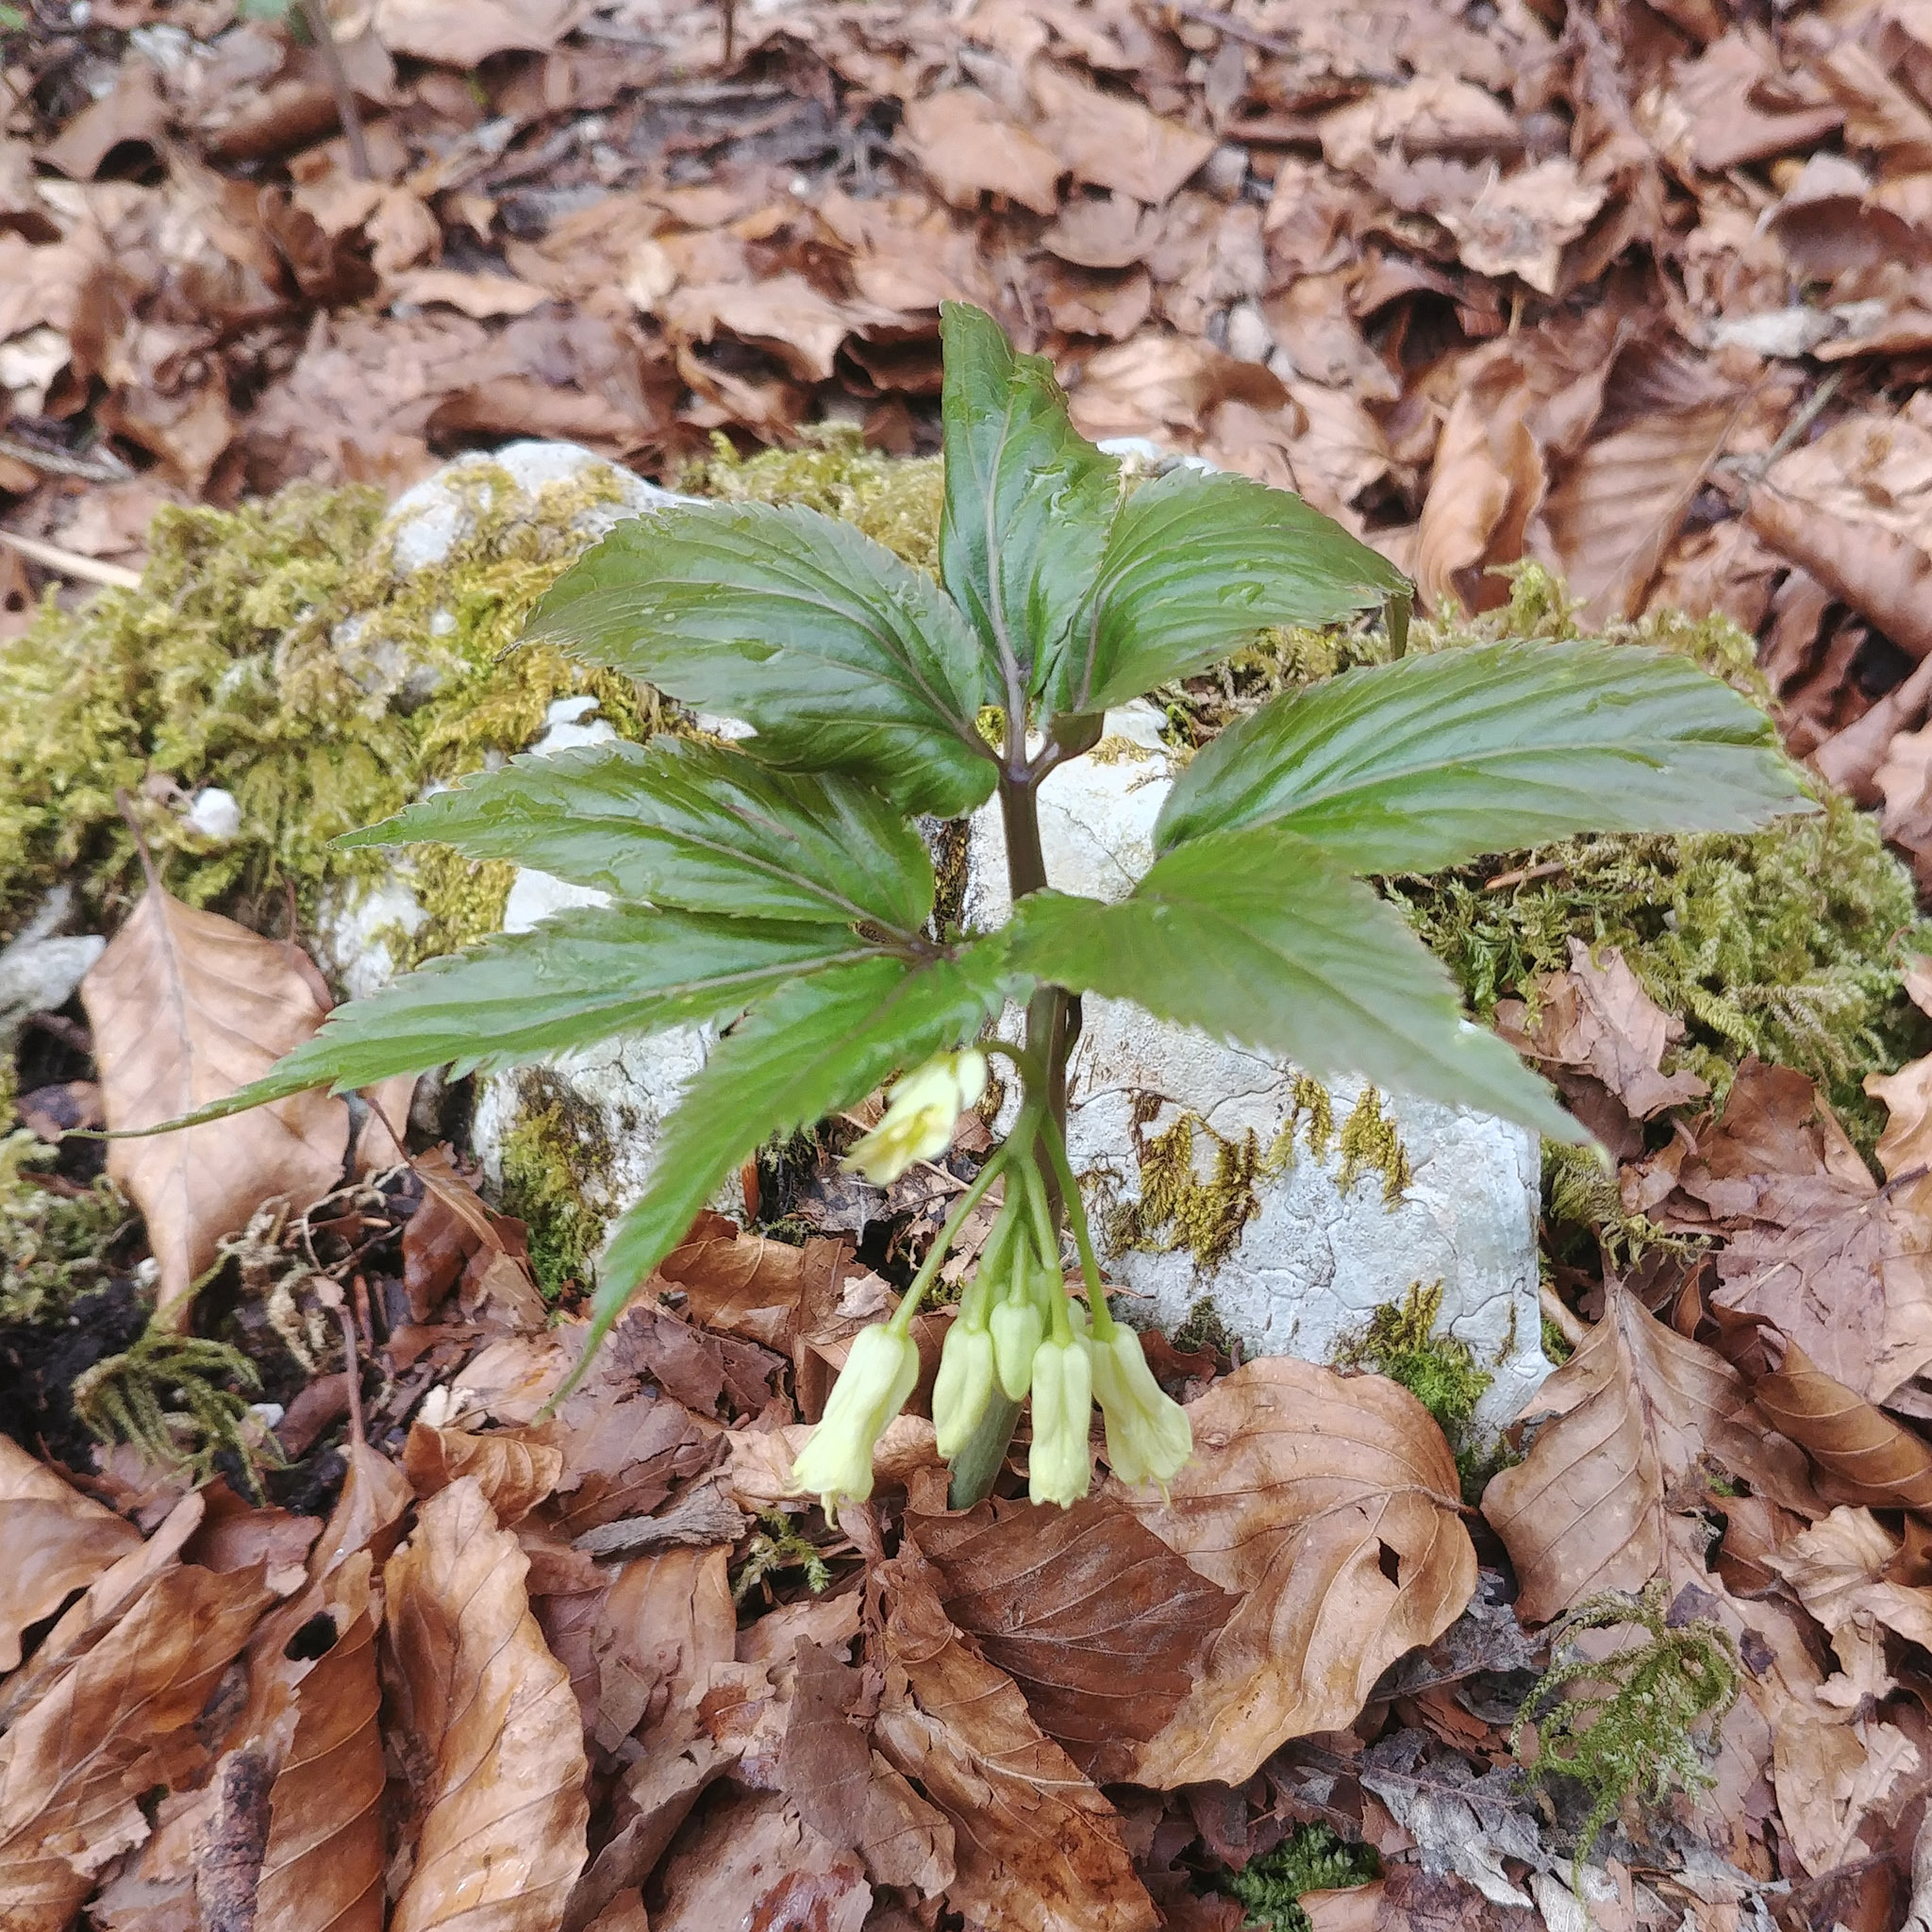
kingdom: Plantae
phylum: Tracheophyta
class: Magnoliopsida
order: Brassicales
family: Brassicaceae
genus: Cardamine
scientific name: Cardamine enneaphyllos
